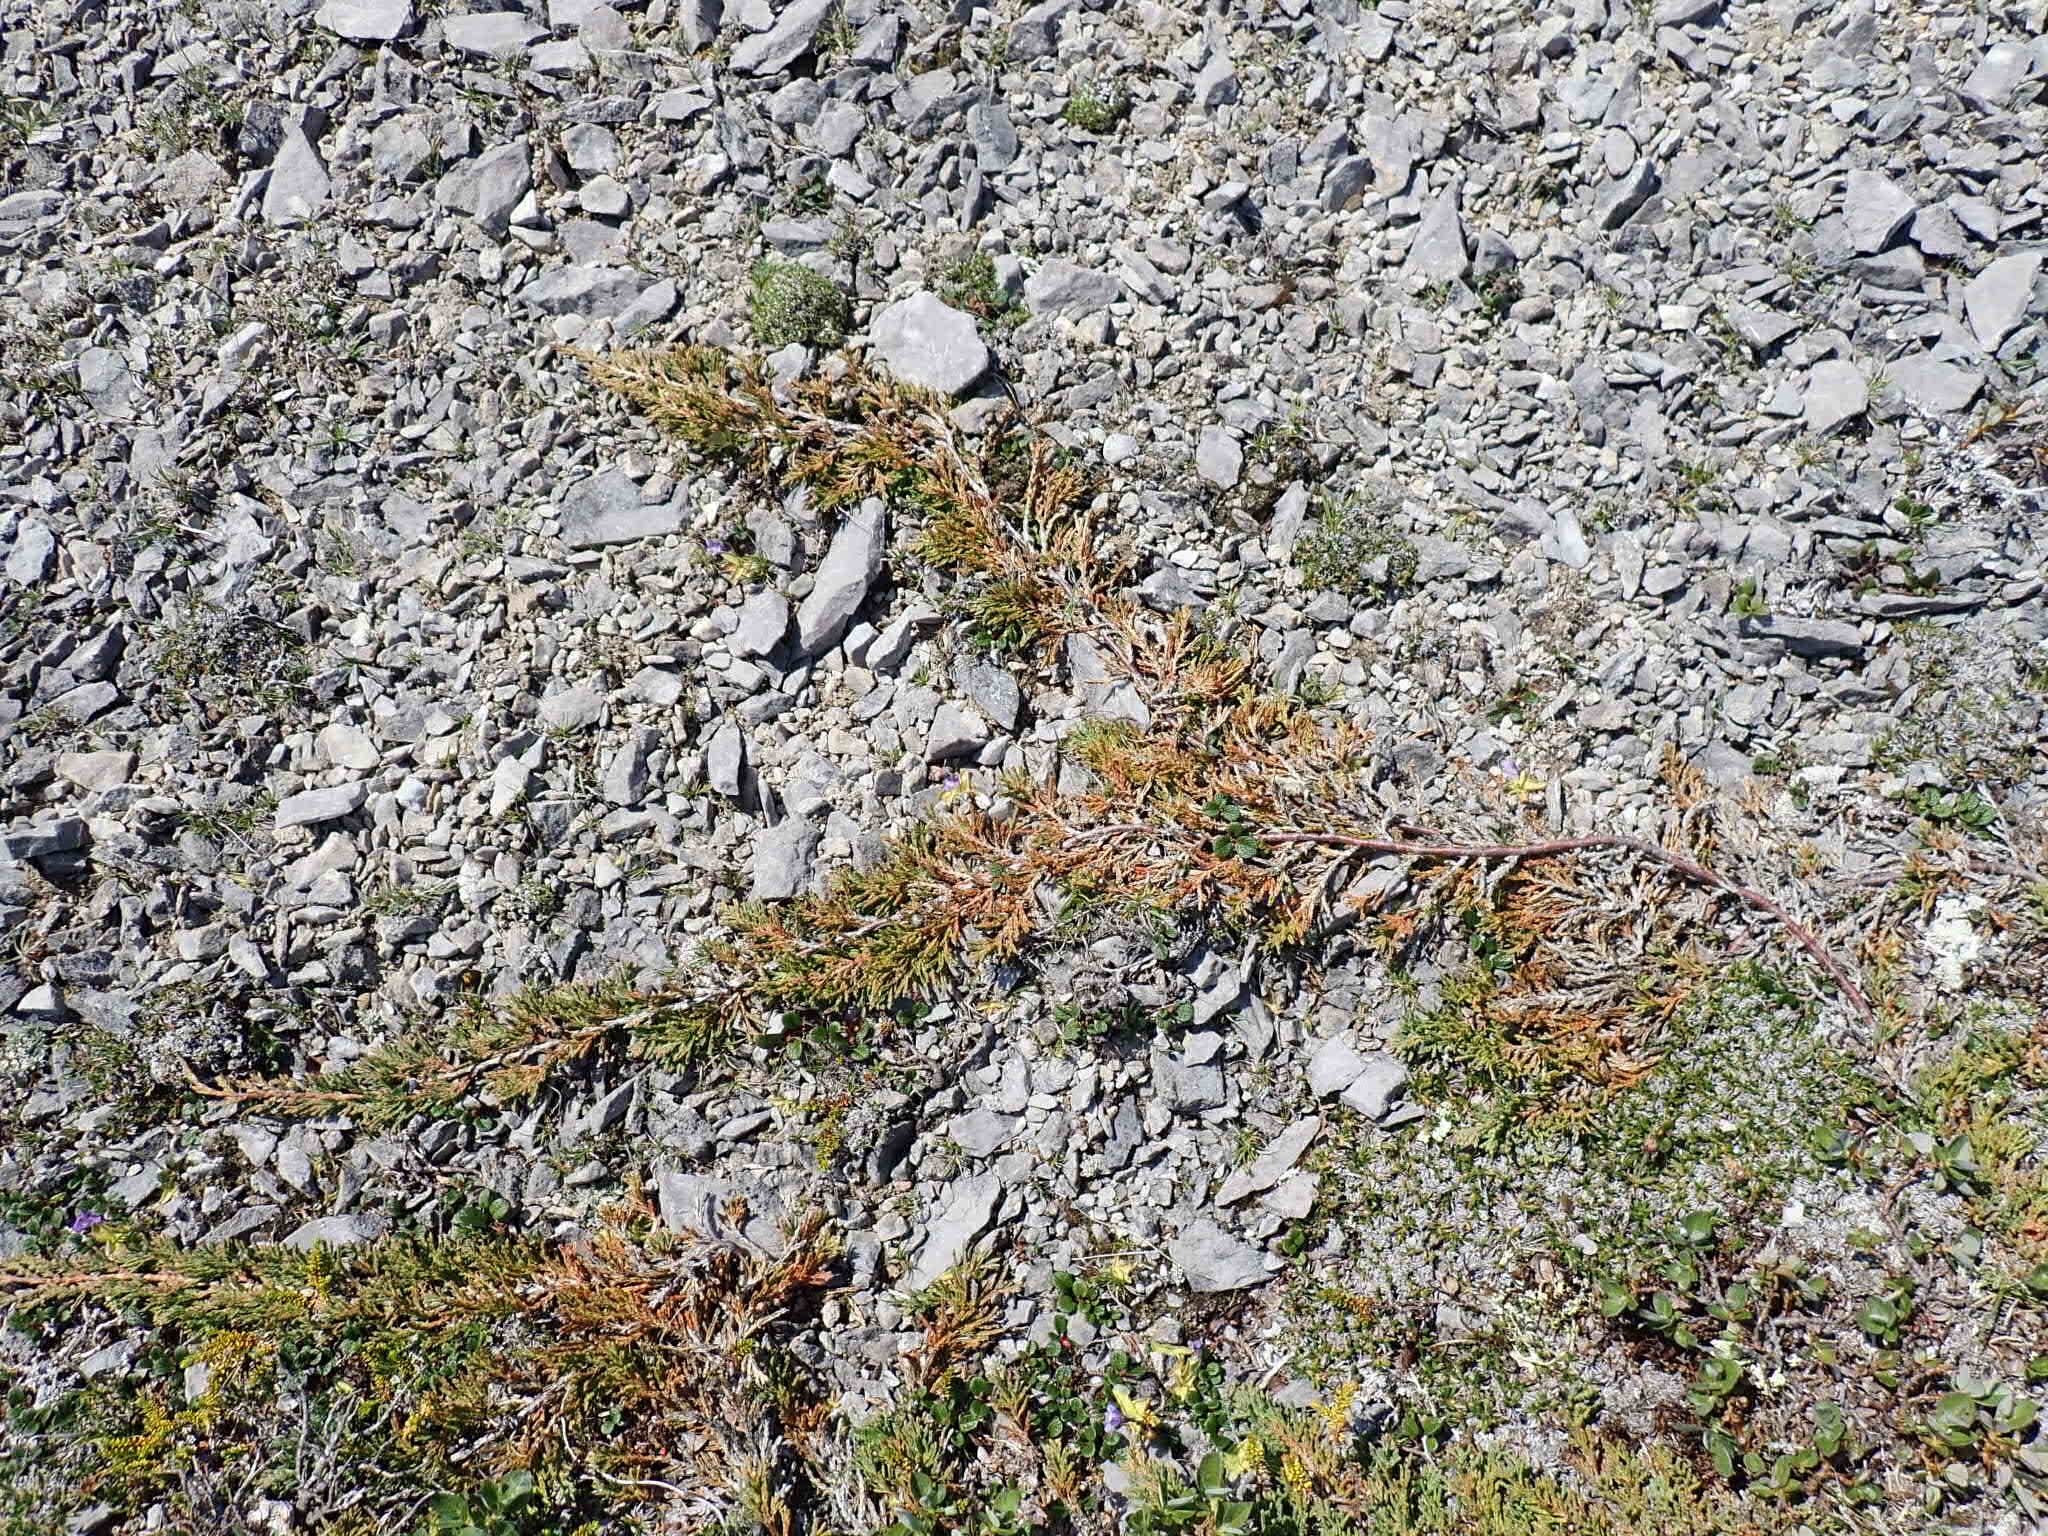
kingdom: Plantae
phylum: Tracheophyta
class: Pinopsida
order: Pinales
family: Cupressaceae
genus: Juniperus
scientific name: Juniperus horizontalis
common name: Creeping juniper
